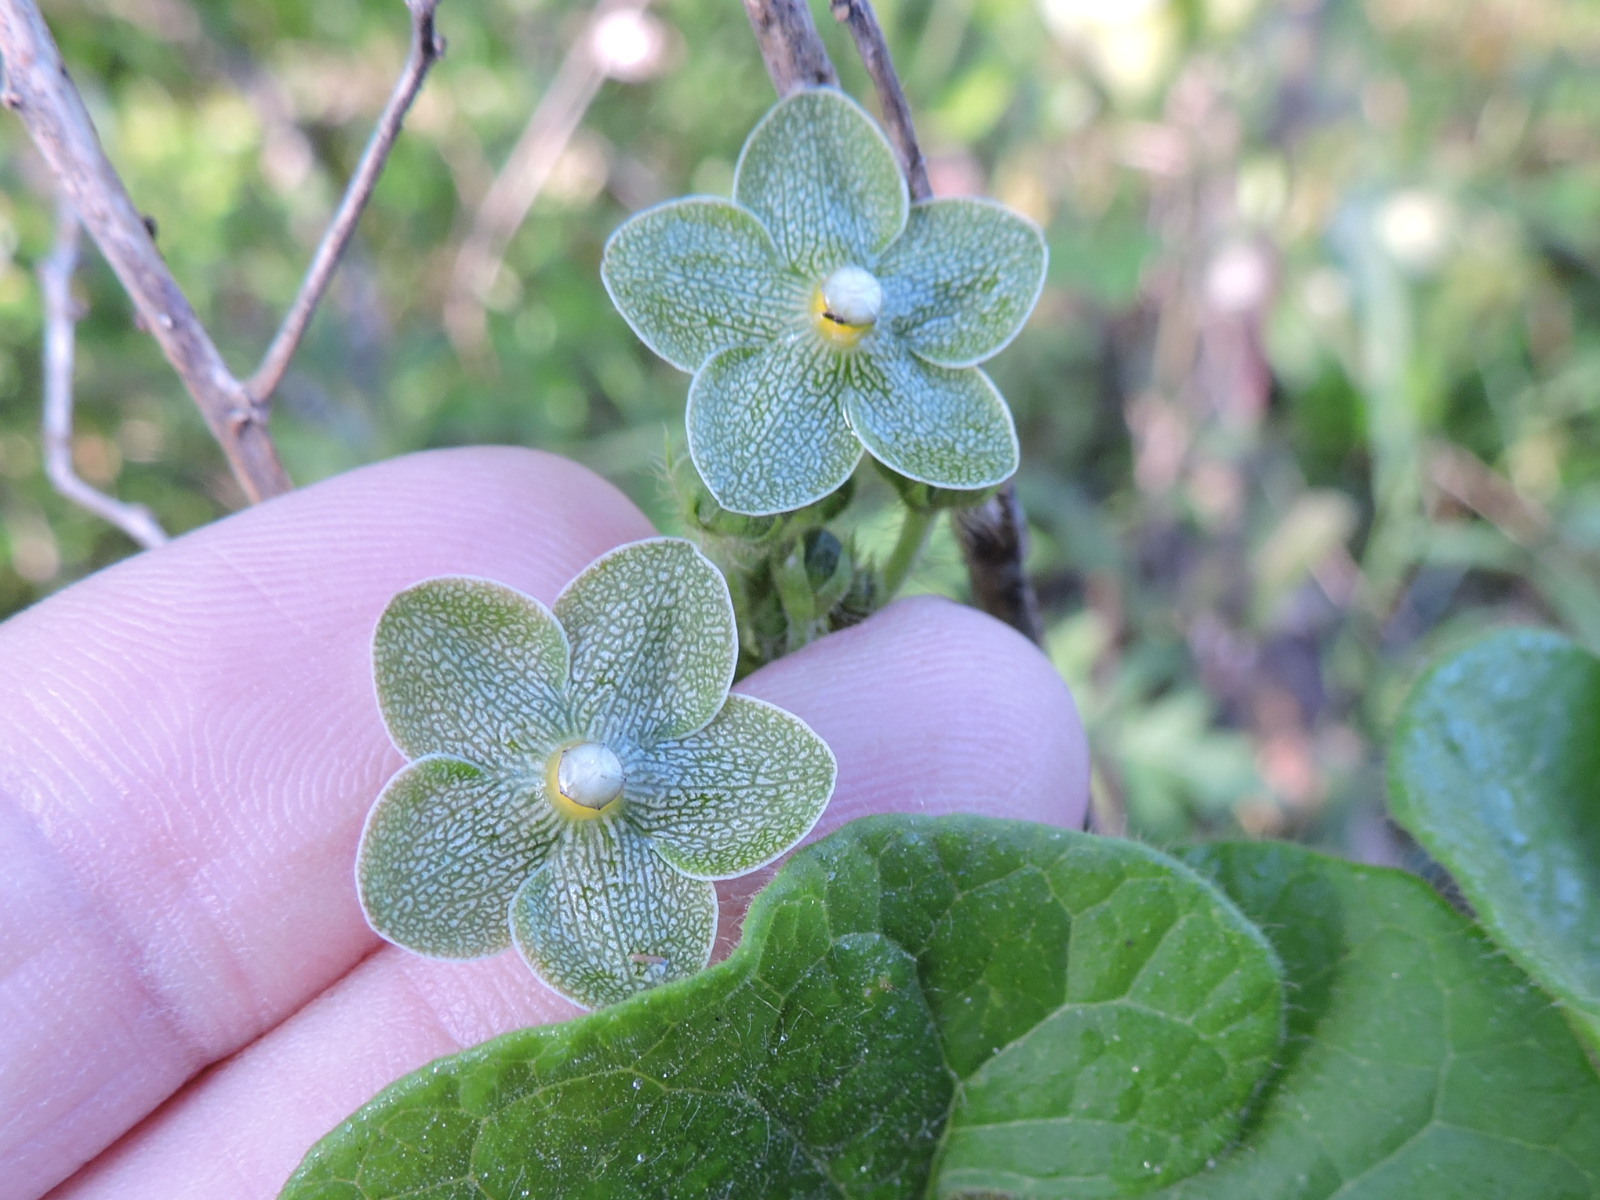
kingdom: Plantae
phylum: Tracheophyta
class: Magnoliopsida
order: Gentianales
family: Apocynaceae
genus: Dictyanthus
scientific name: Dictyanthus reticulatus
